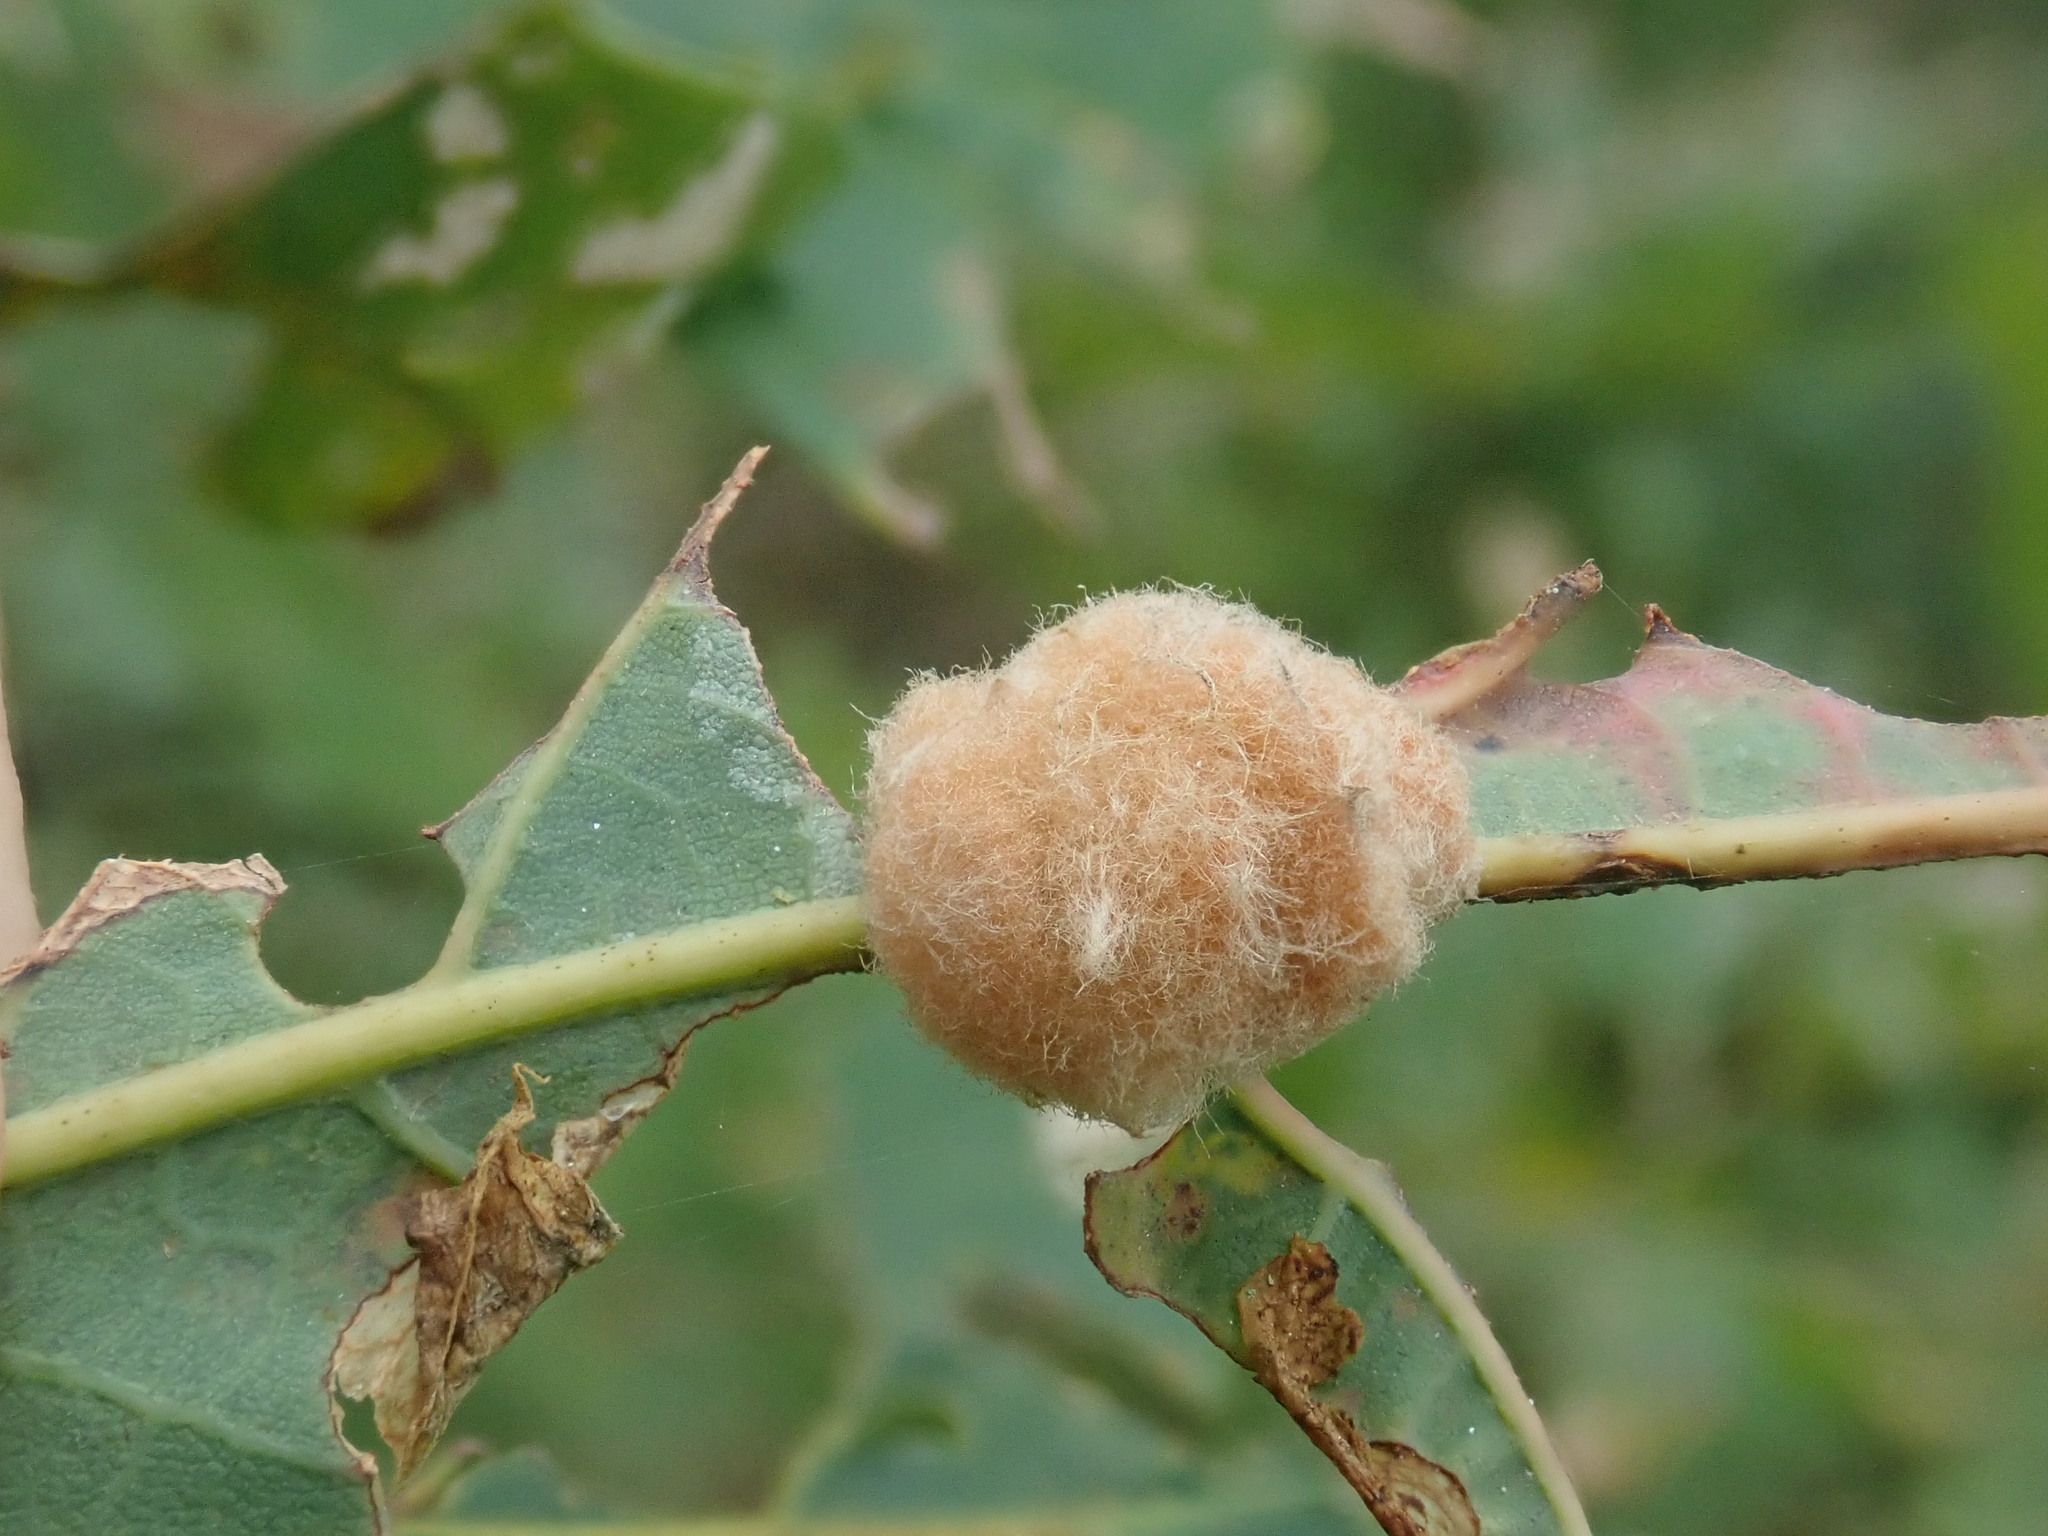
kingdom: Animalia
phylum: Arthropoda
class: Insecta
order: Hymenoptera
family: Cynipidae
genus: Andricus
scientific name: Andricus quercusflocci
